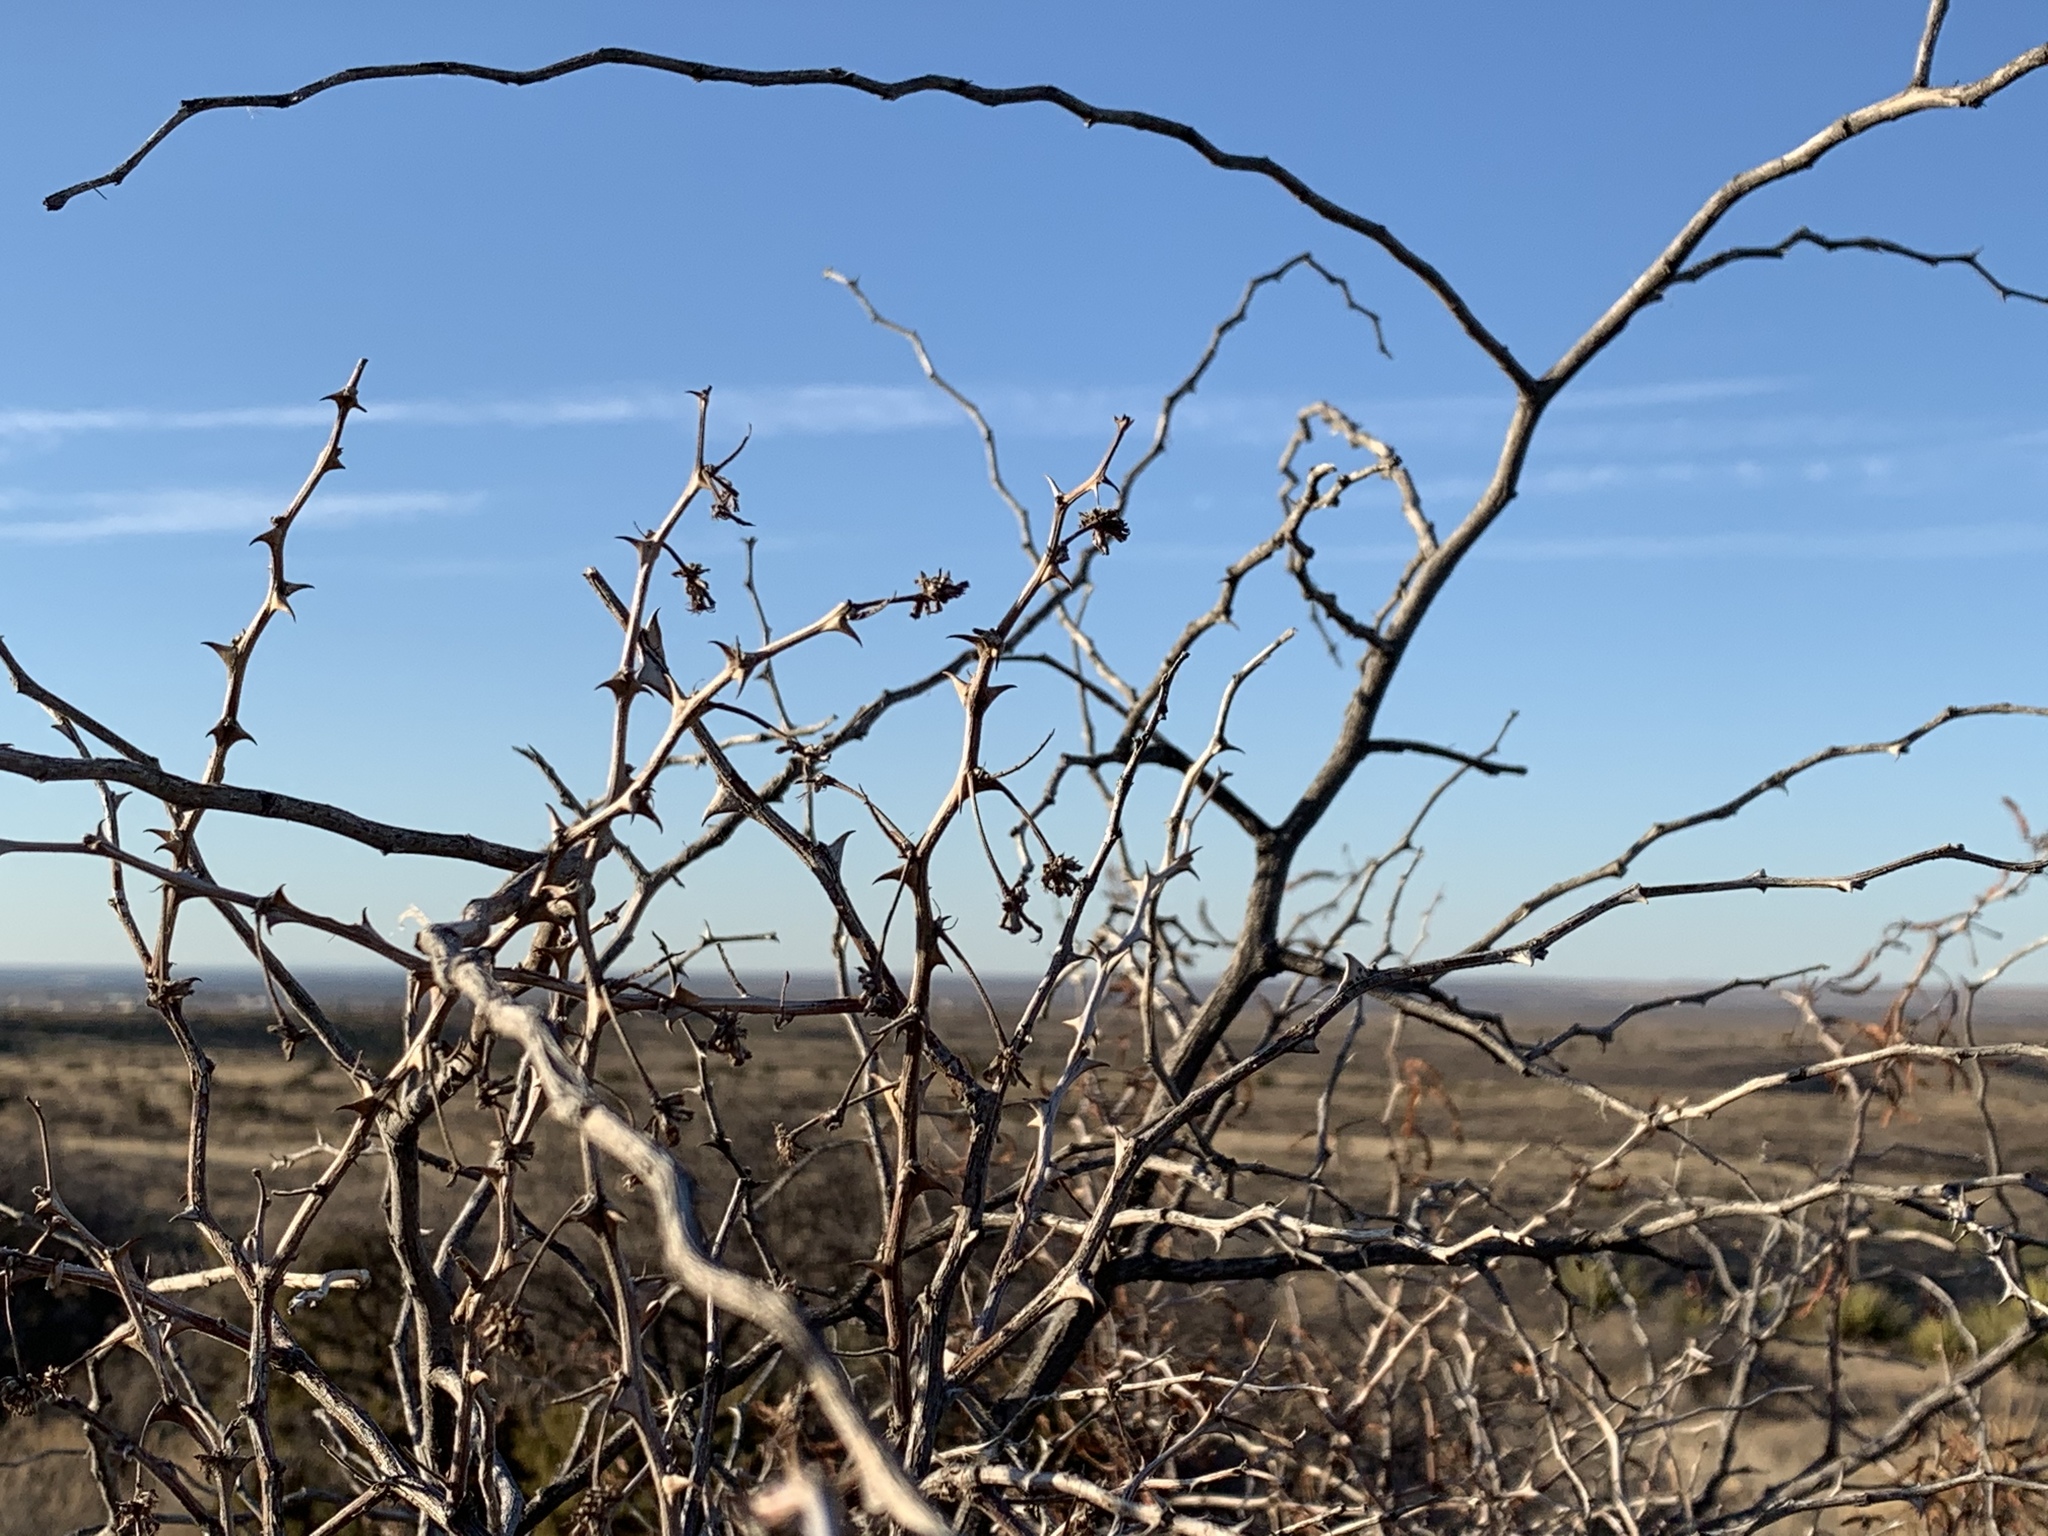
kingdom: Plantae
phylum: Tracheophyta
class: Magnoliopsida
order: Fabales
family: Fabaceae
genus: Mimosa
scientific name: Mimosa aculeaticarpa
